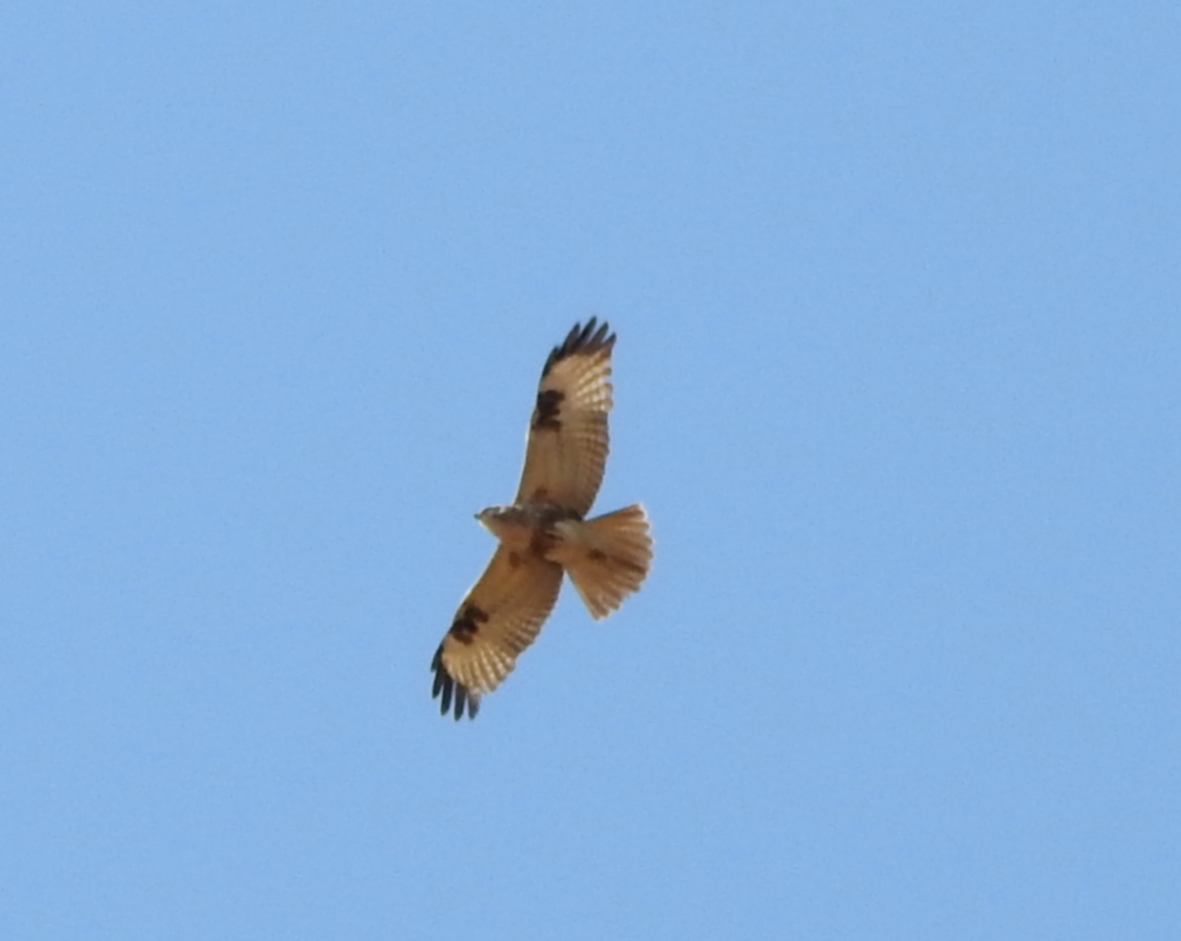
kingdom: Animalia
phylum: Chordata
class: Aves
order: Accipitriformes
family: Accipitridae
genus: Buteo
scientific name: Buteo japonicus
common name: Eastern buzzard
